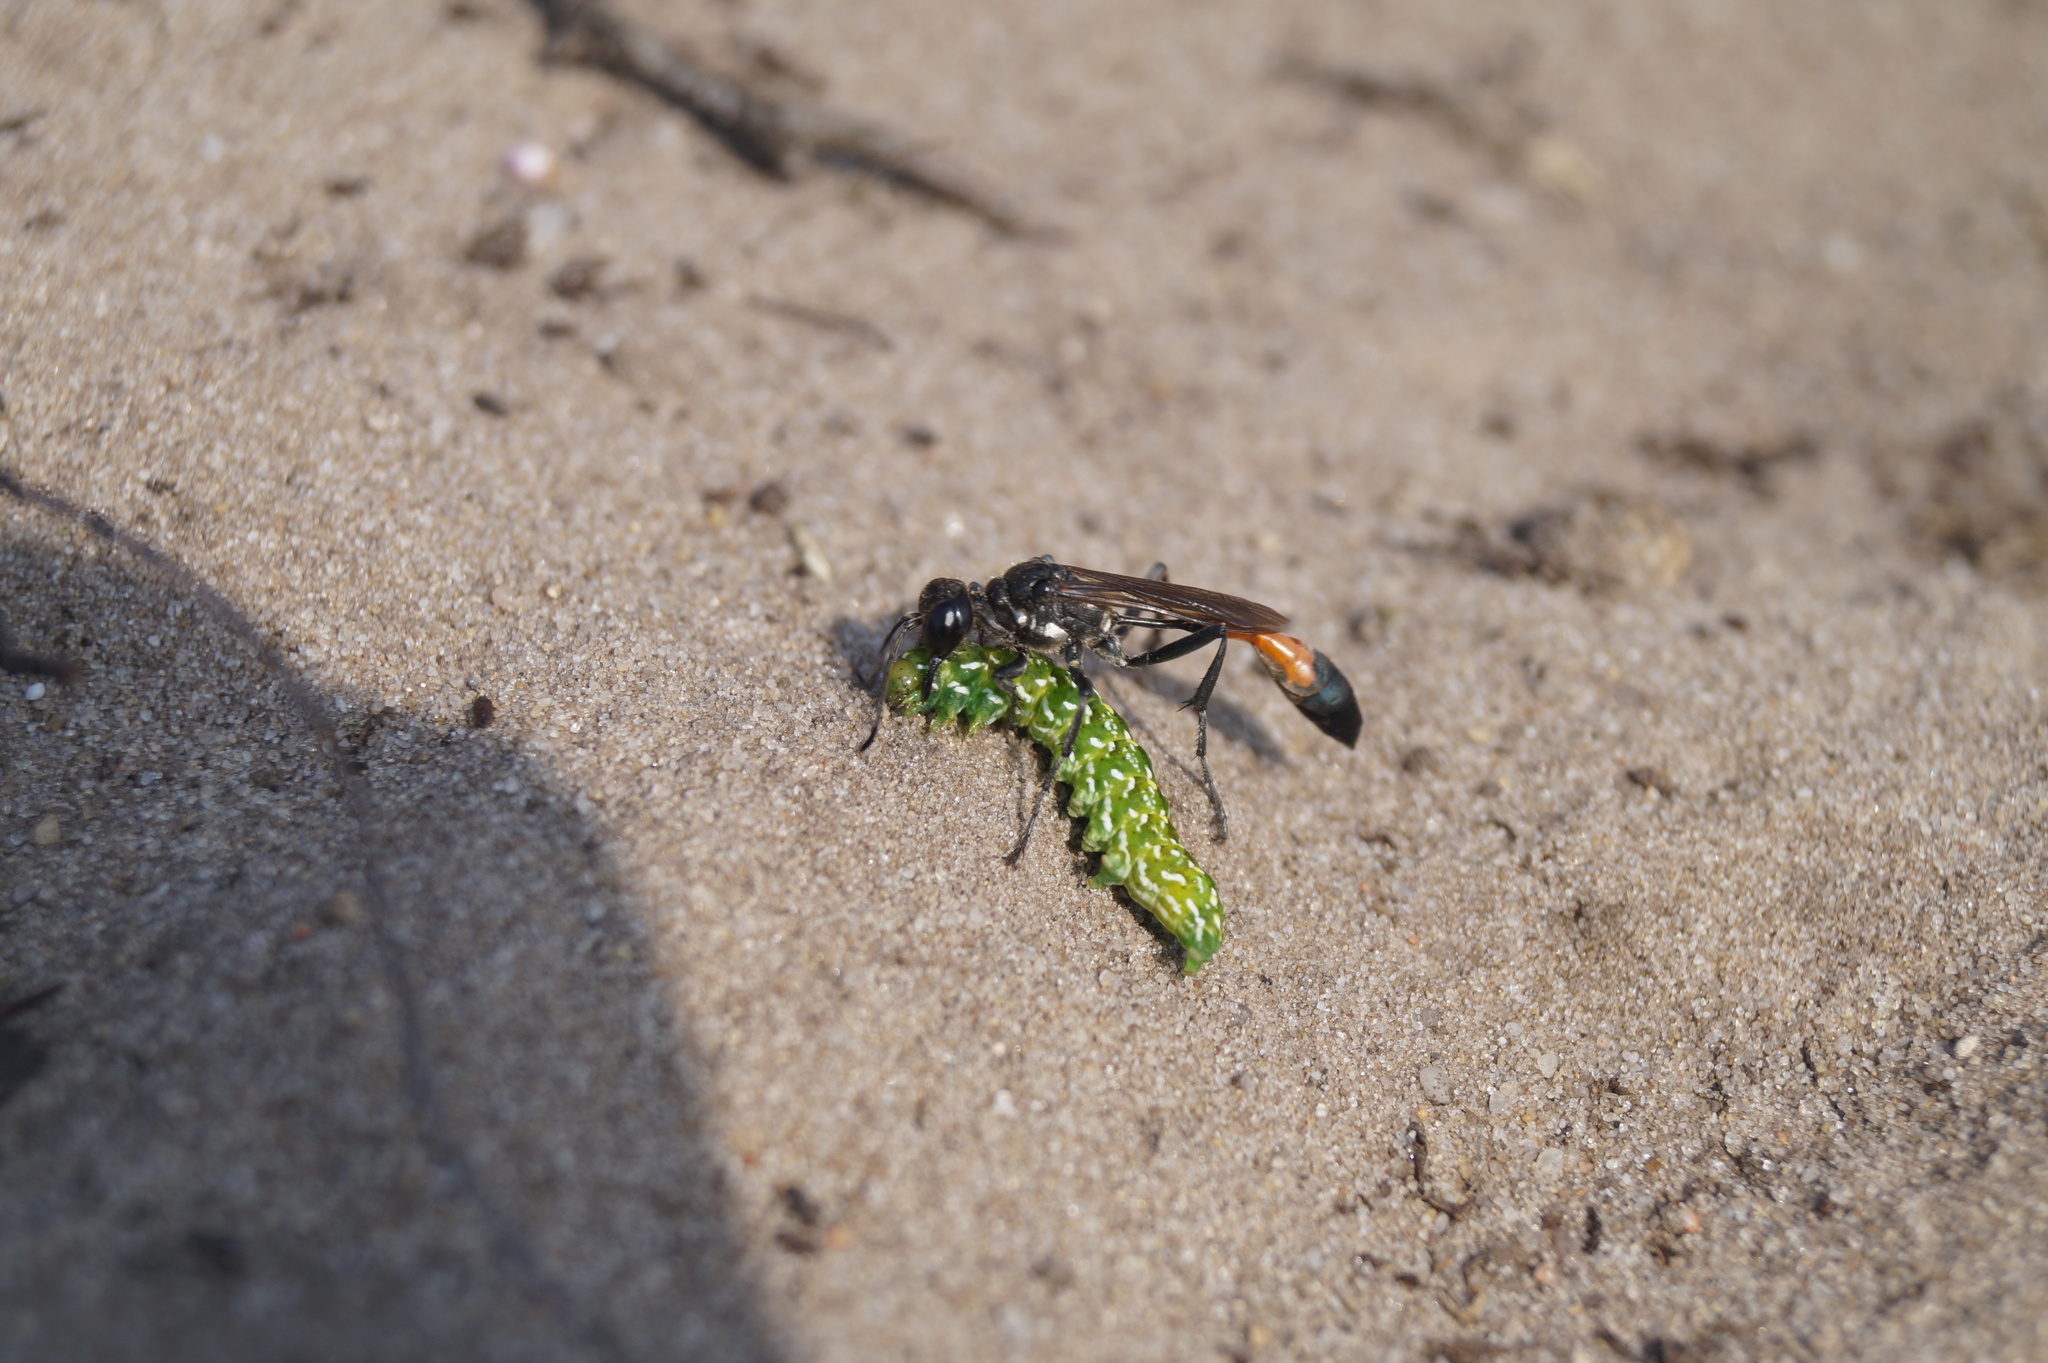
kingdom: Animalia
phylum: Arthropoda
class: Insecta
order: Lepidoptera
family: Noctuidae
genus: Anarta
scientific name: Anarta myrtilli
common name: Beautiful yellow underwing
